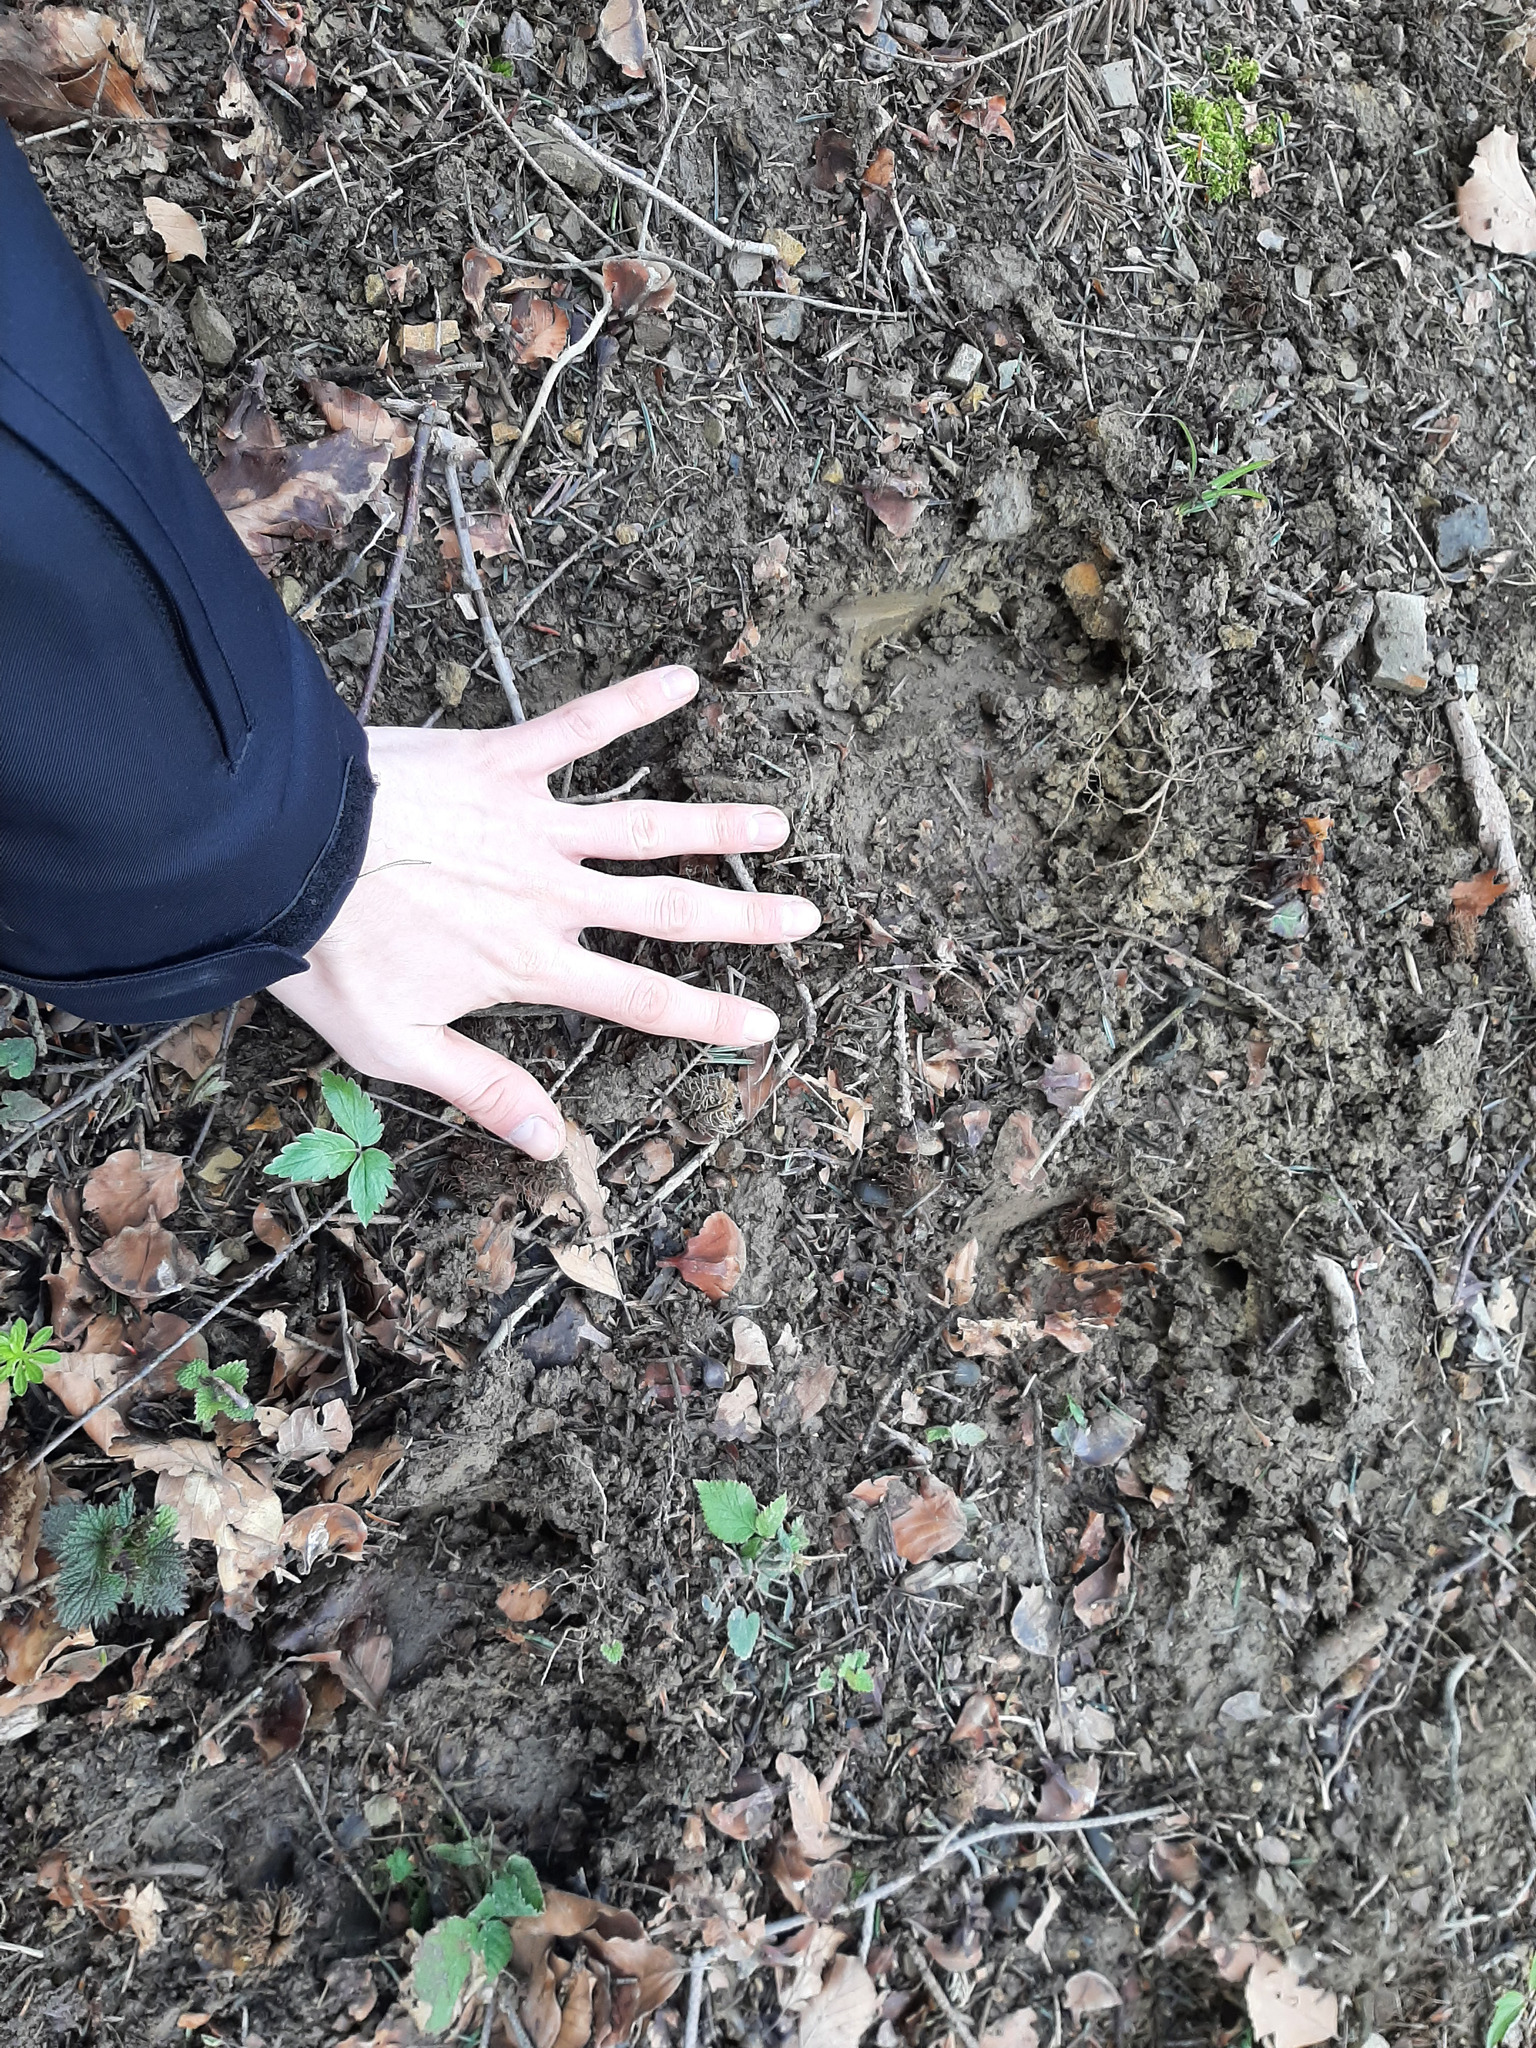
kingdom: Animalia
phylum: Chordata
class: Mammalia
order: Artiodactyla
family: Bovidae
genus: Bison
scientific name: Bison bonasus
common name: European bison
